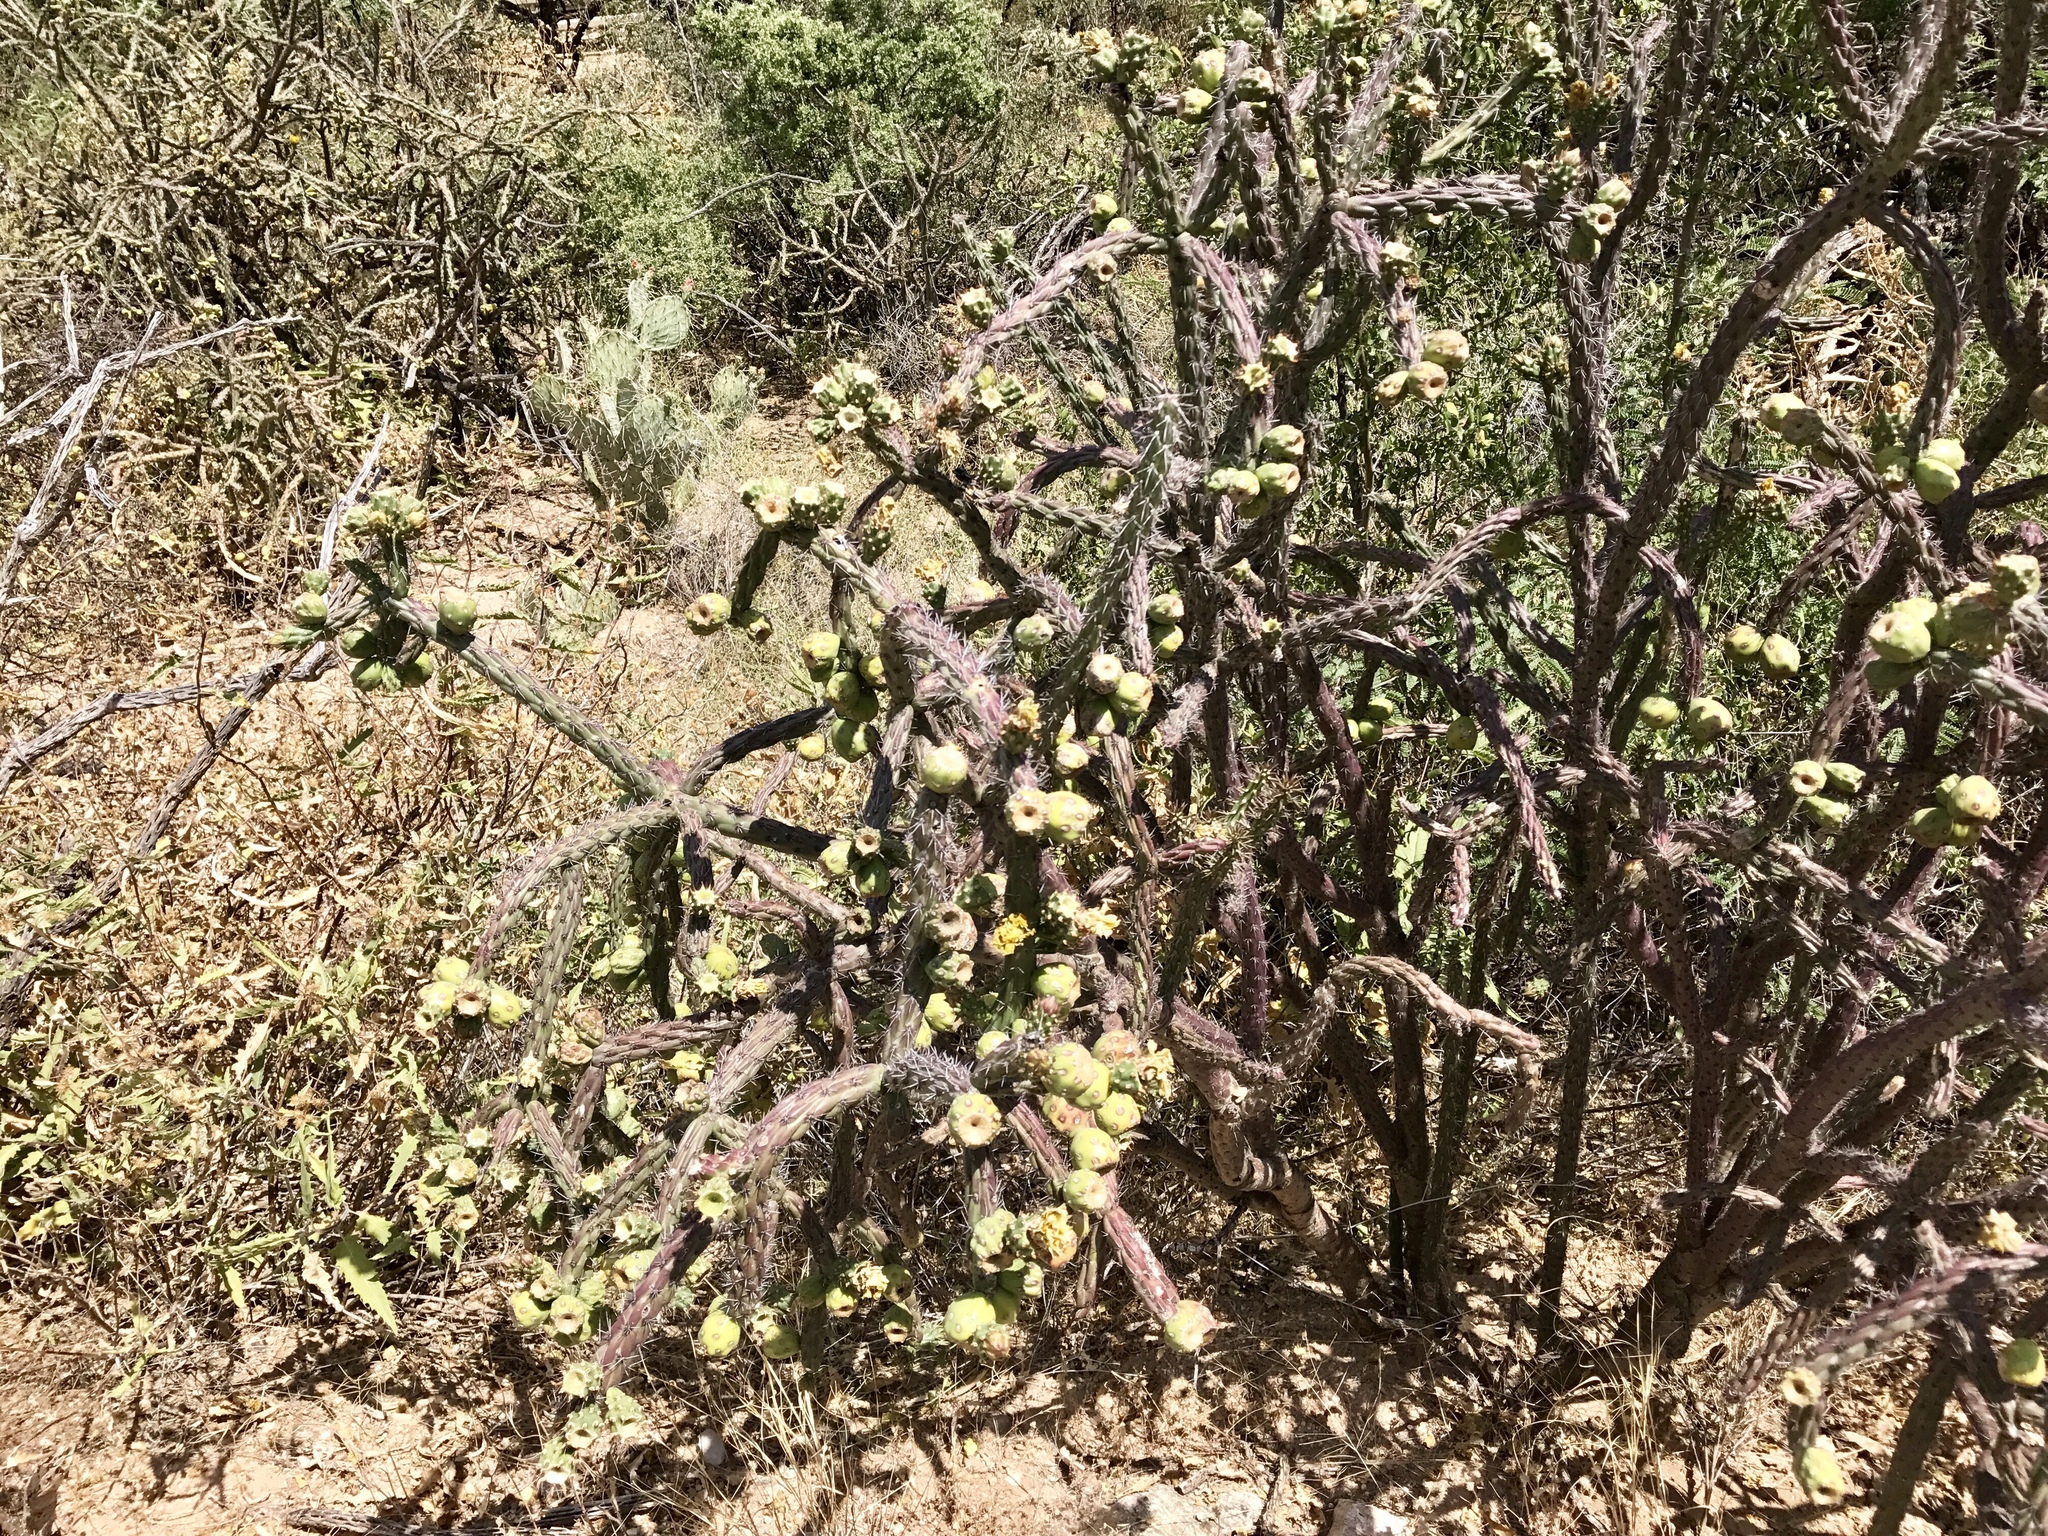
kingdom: Plantae
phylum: Tracheophyta
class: Magnoliopsida
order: Caryophyllales
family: Cactaceae
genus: Cylindropuntia
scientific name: Cylindropuntia thurberi
